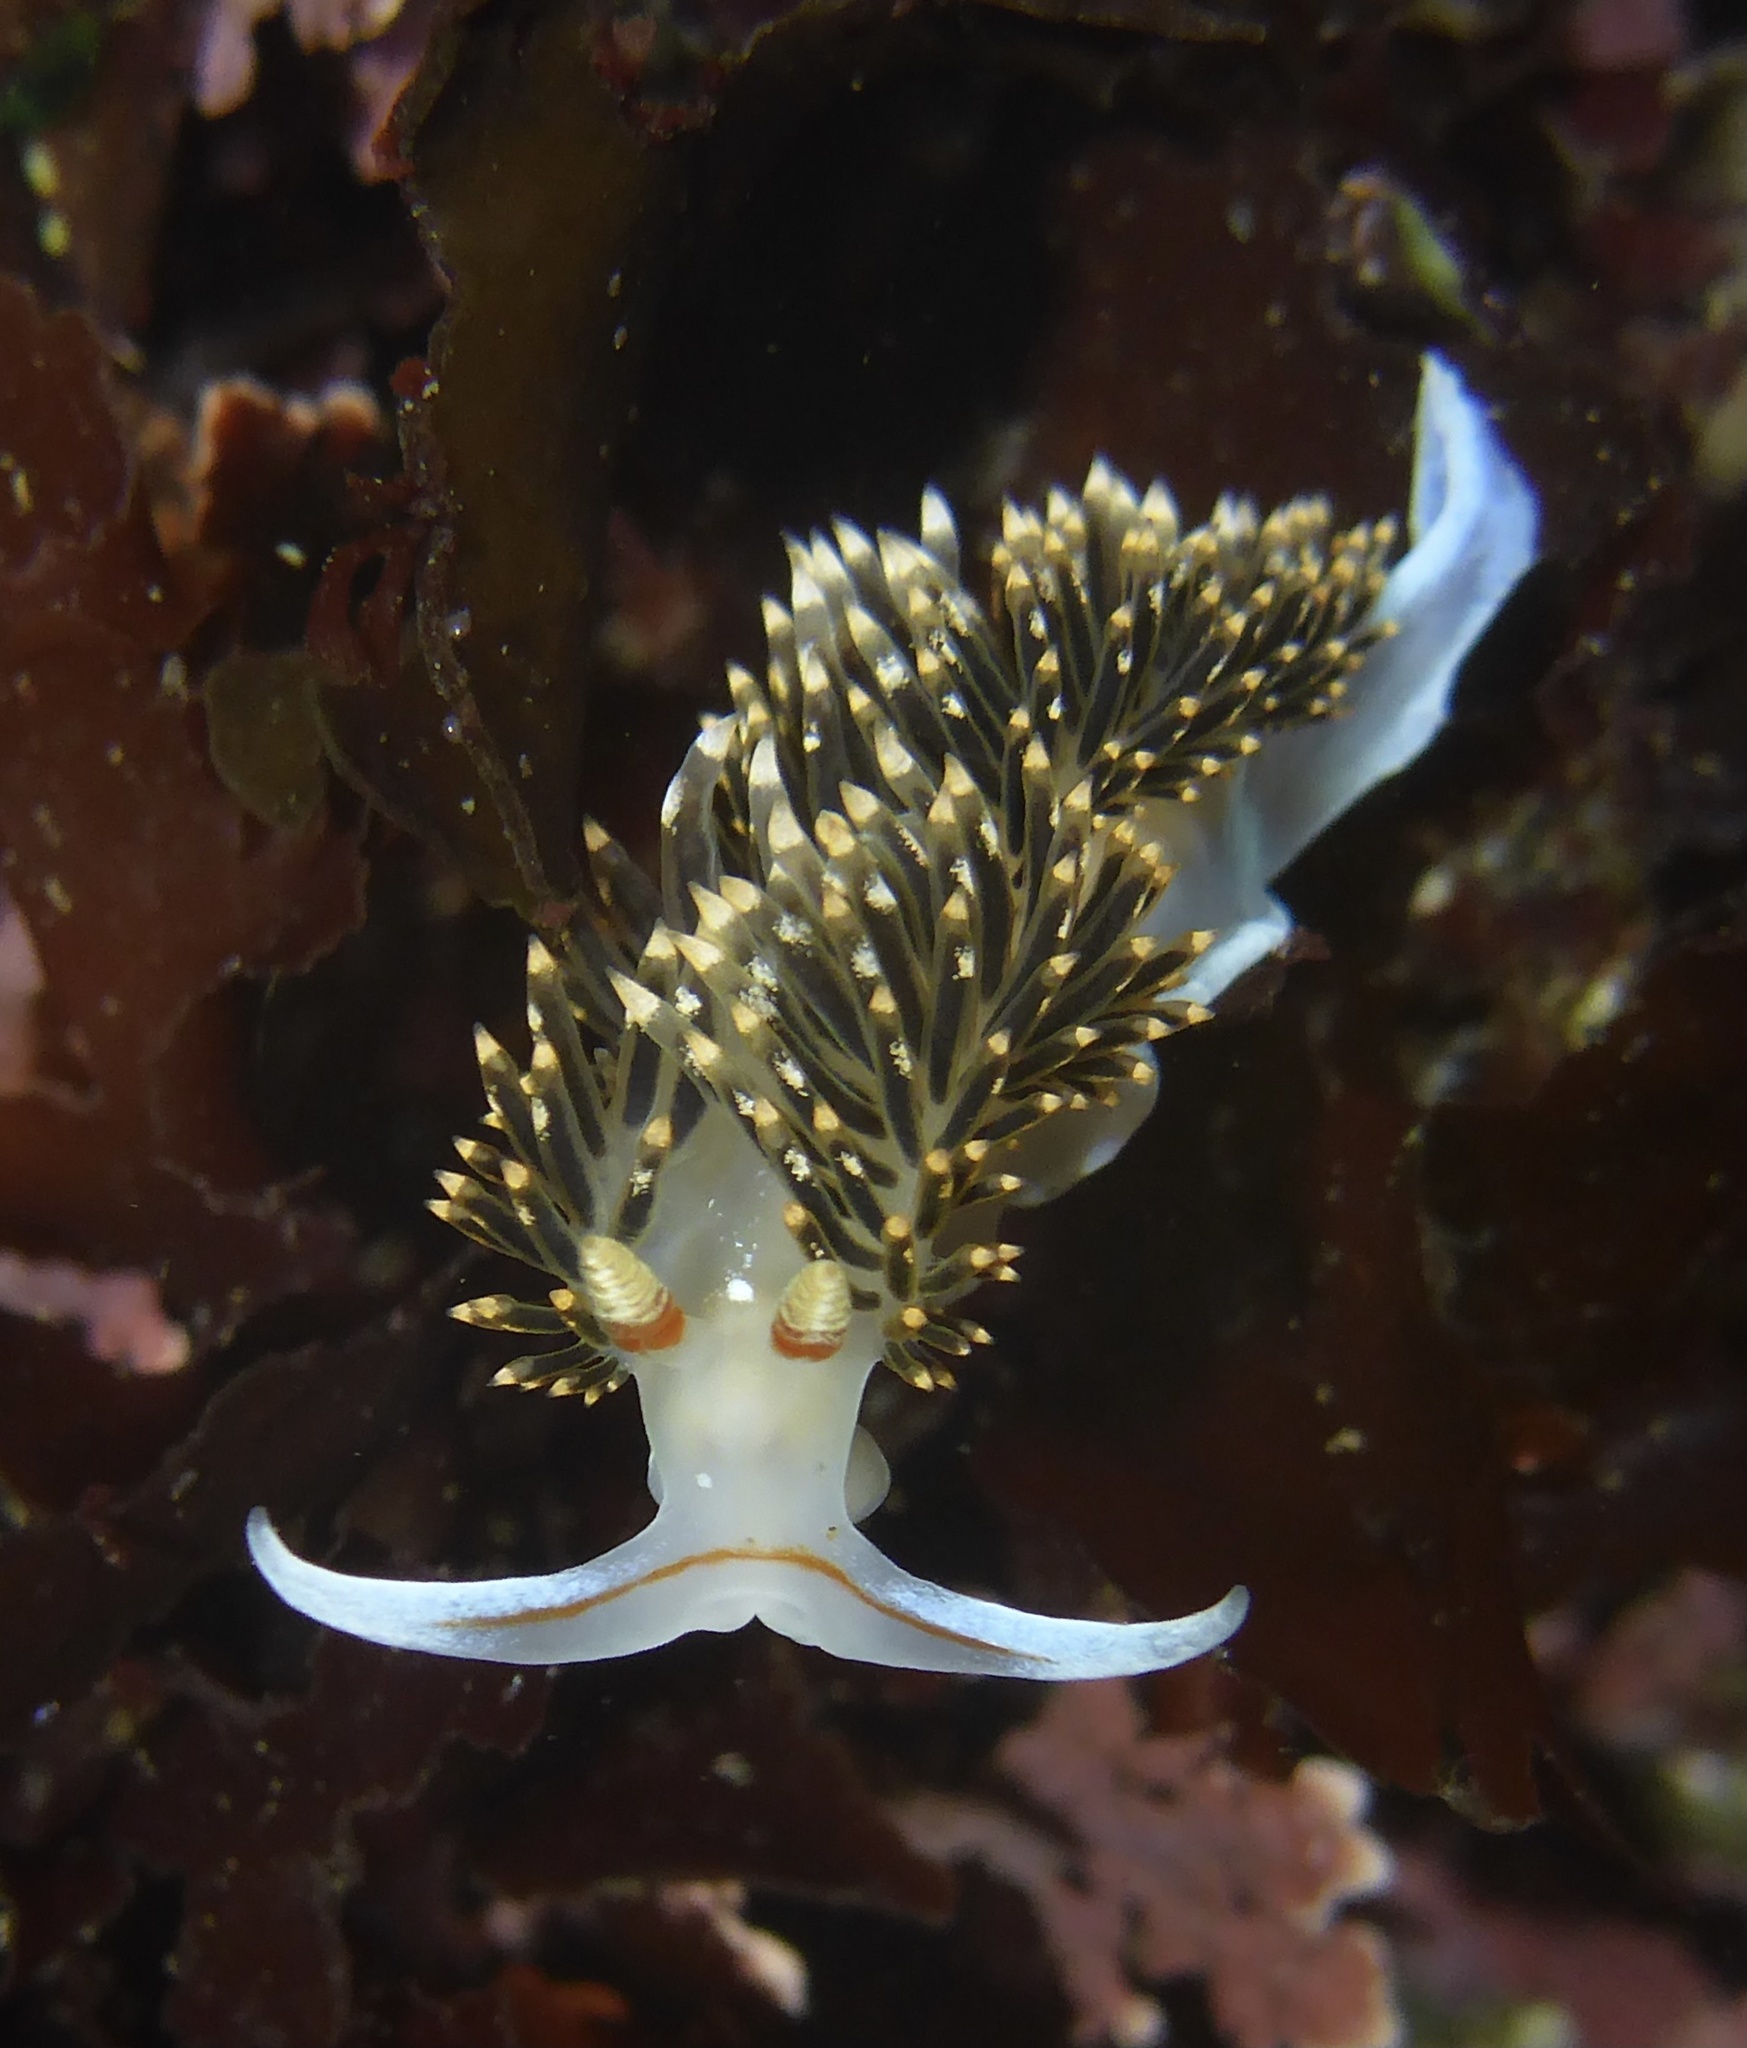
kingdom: Animalia
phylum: Mollusca
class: Gastropoda
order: Nudibranchia
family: Facelinidae
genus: Phidiana
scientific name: Phidiana hiltoni
